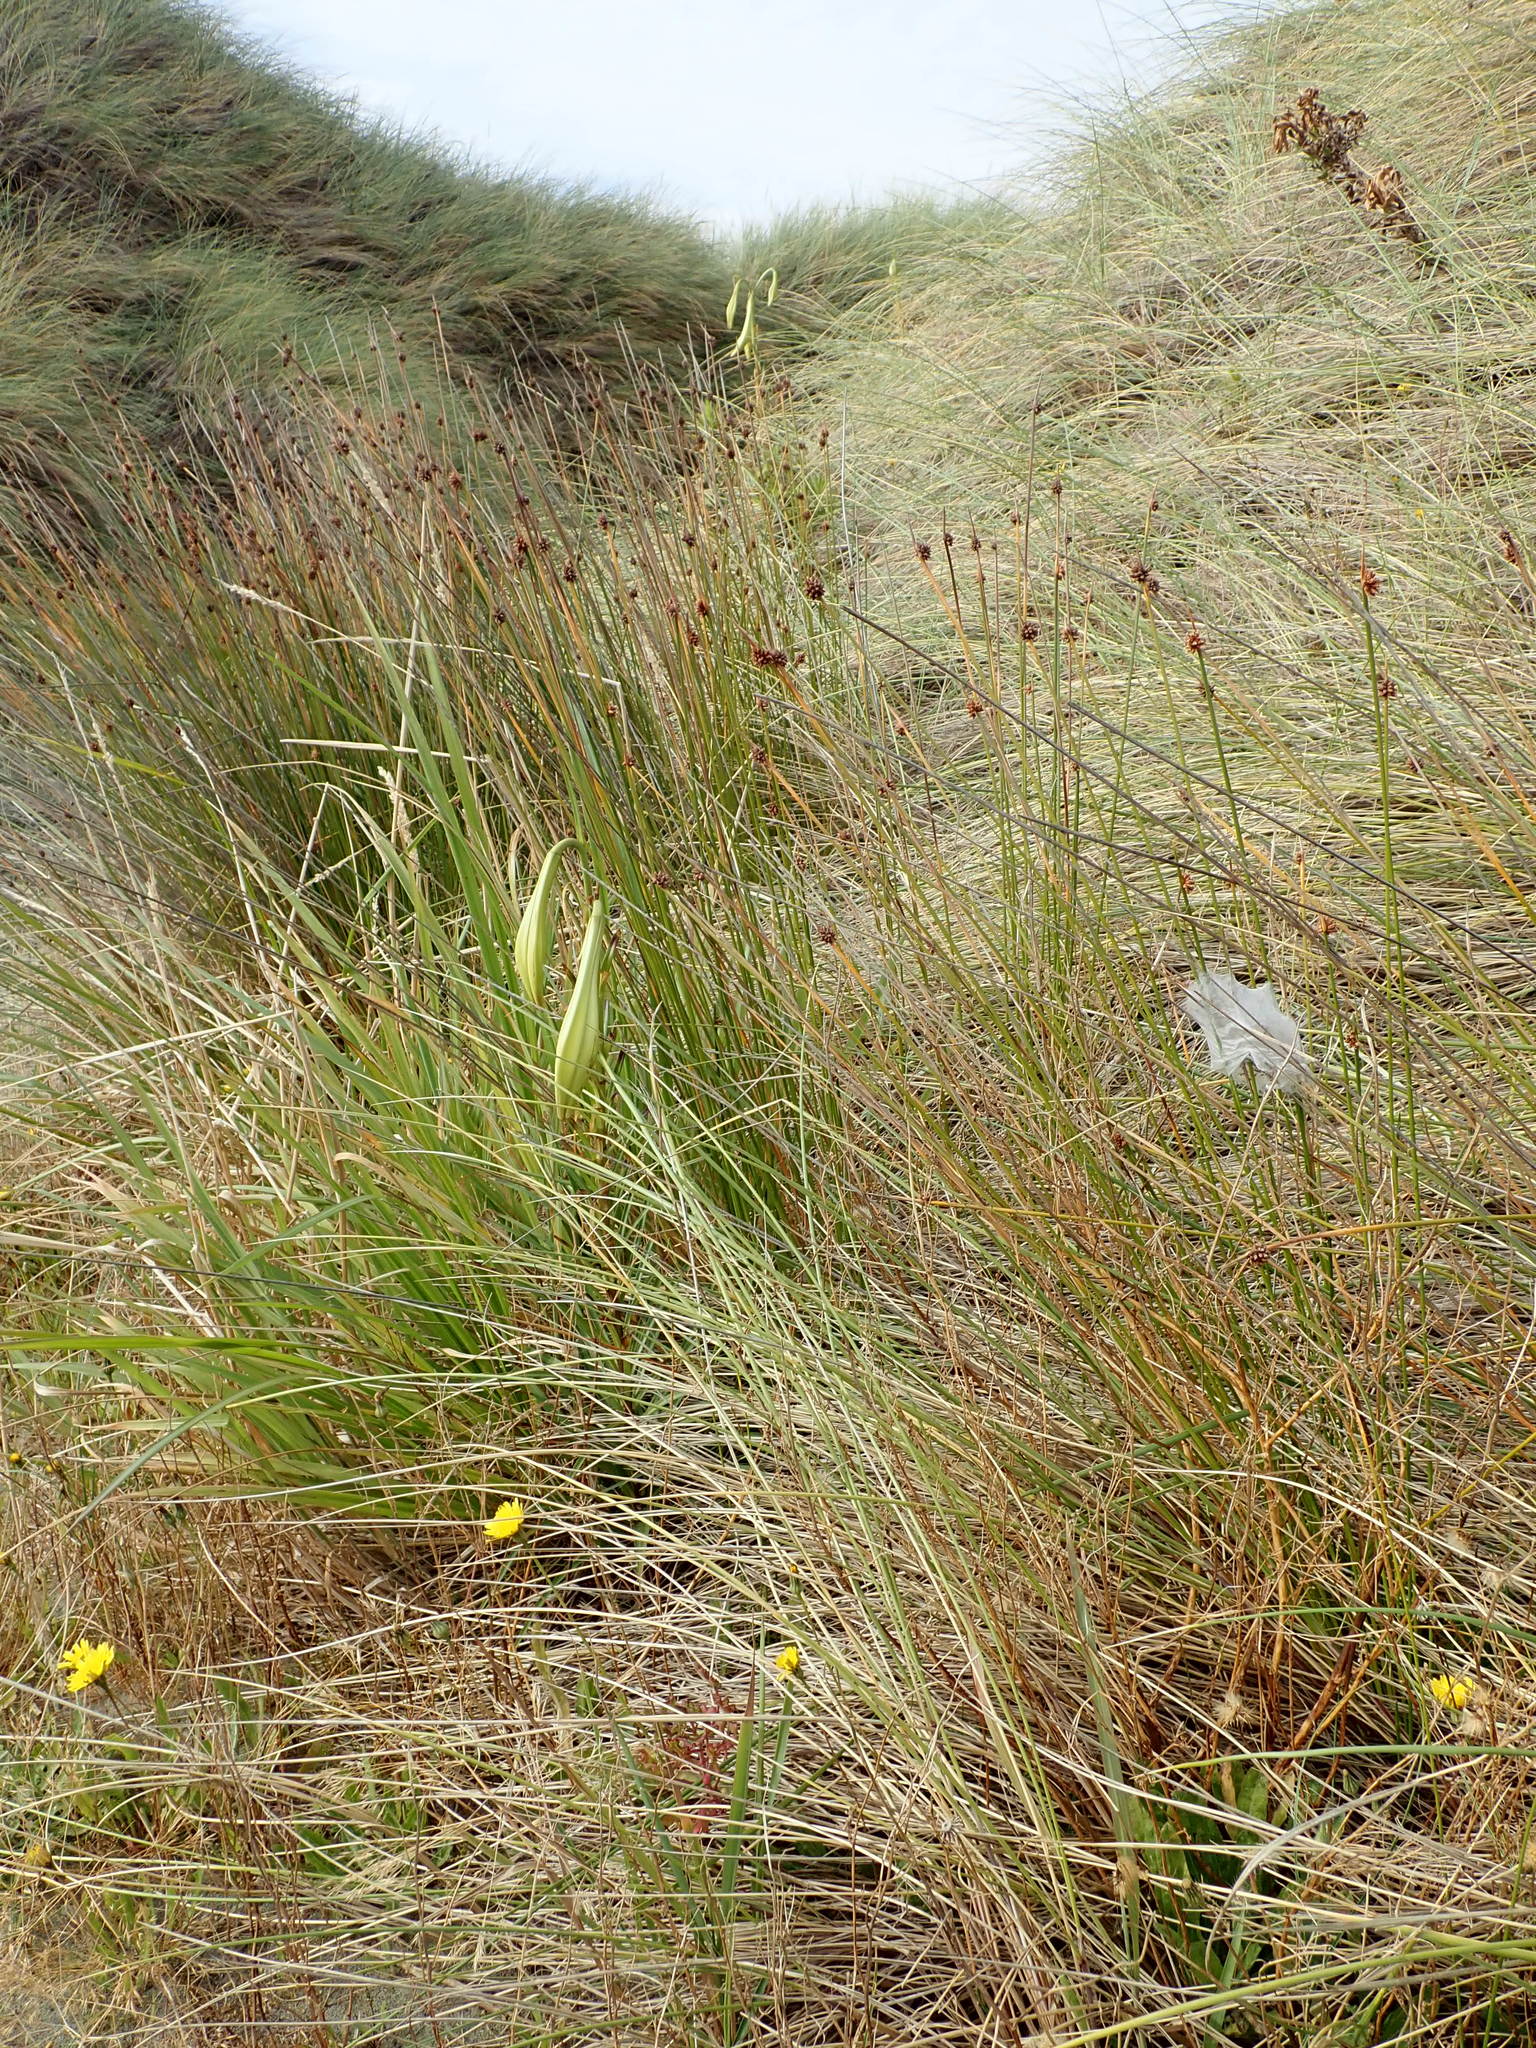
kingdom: Animalia
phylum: Arthropoda
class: Arachnida
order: Araneae
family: Pisauridae
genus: Dolomedes
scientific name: Dolomedes minor
